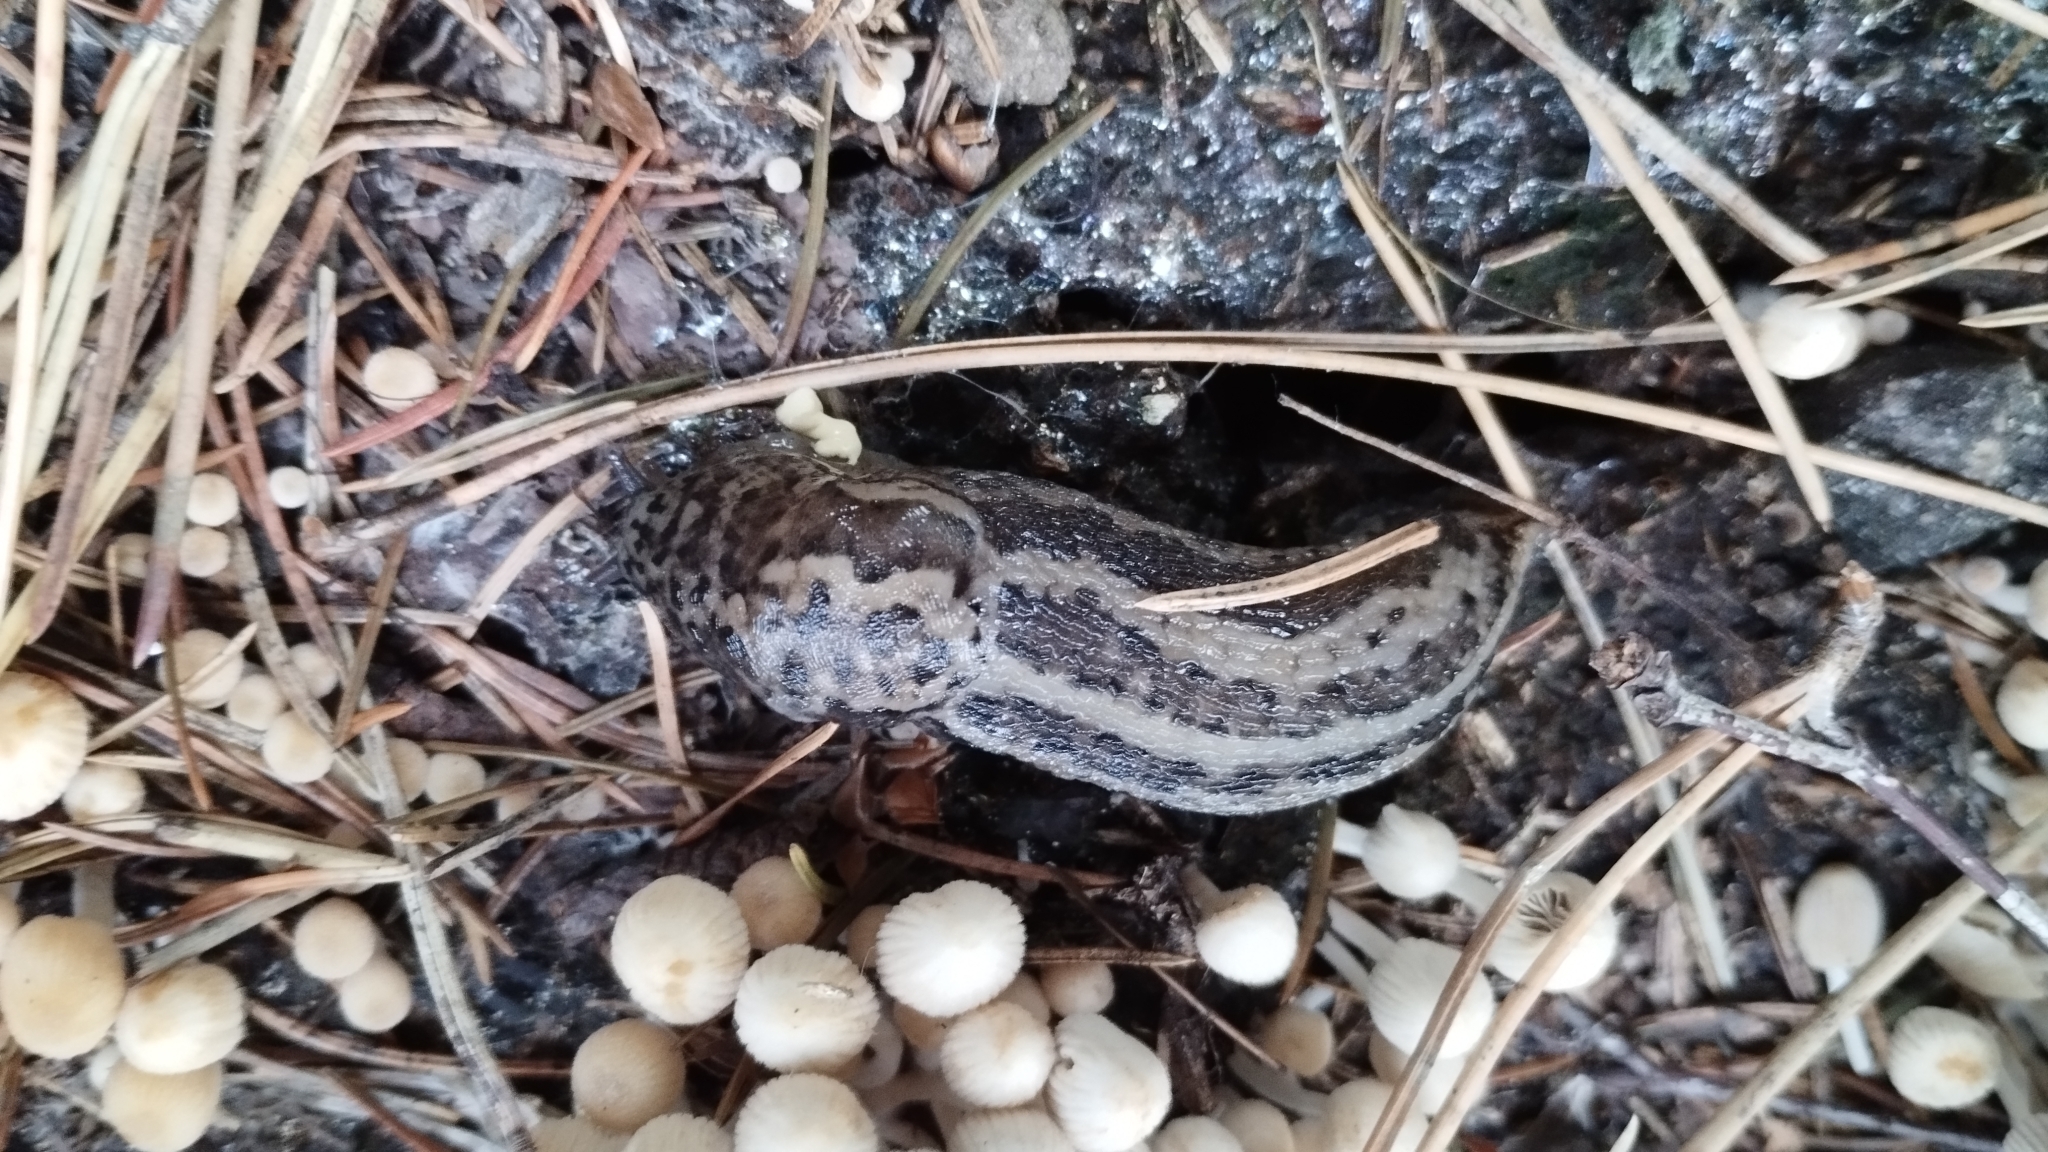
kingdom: Animalia
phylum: Mollusca
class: Gastropoda
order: Stylommatophora
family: Limacidae
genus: Limax
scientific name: Limax maximus
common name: Great grey slug
